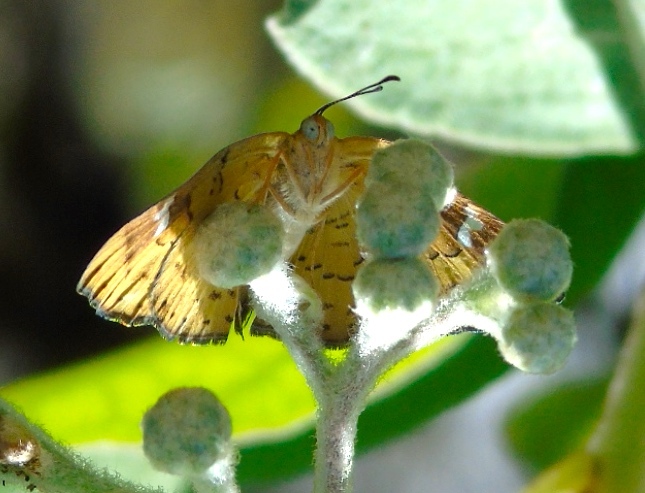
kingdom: Animalia
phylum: Arthropoda
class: Insecta
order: Lepidoptera
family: Riodinidae
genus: Curvie
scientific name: Curvie emesia
